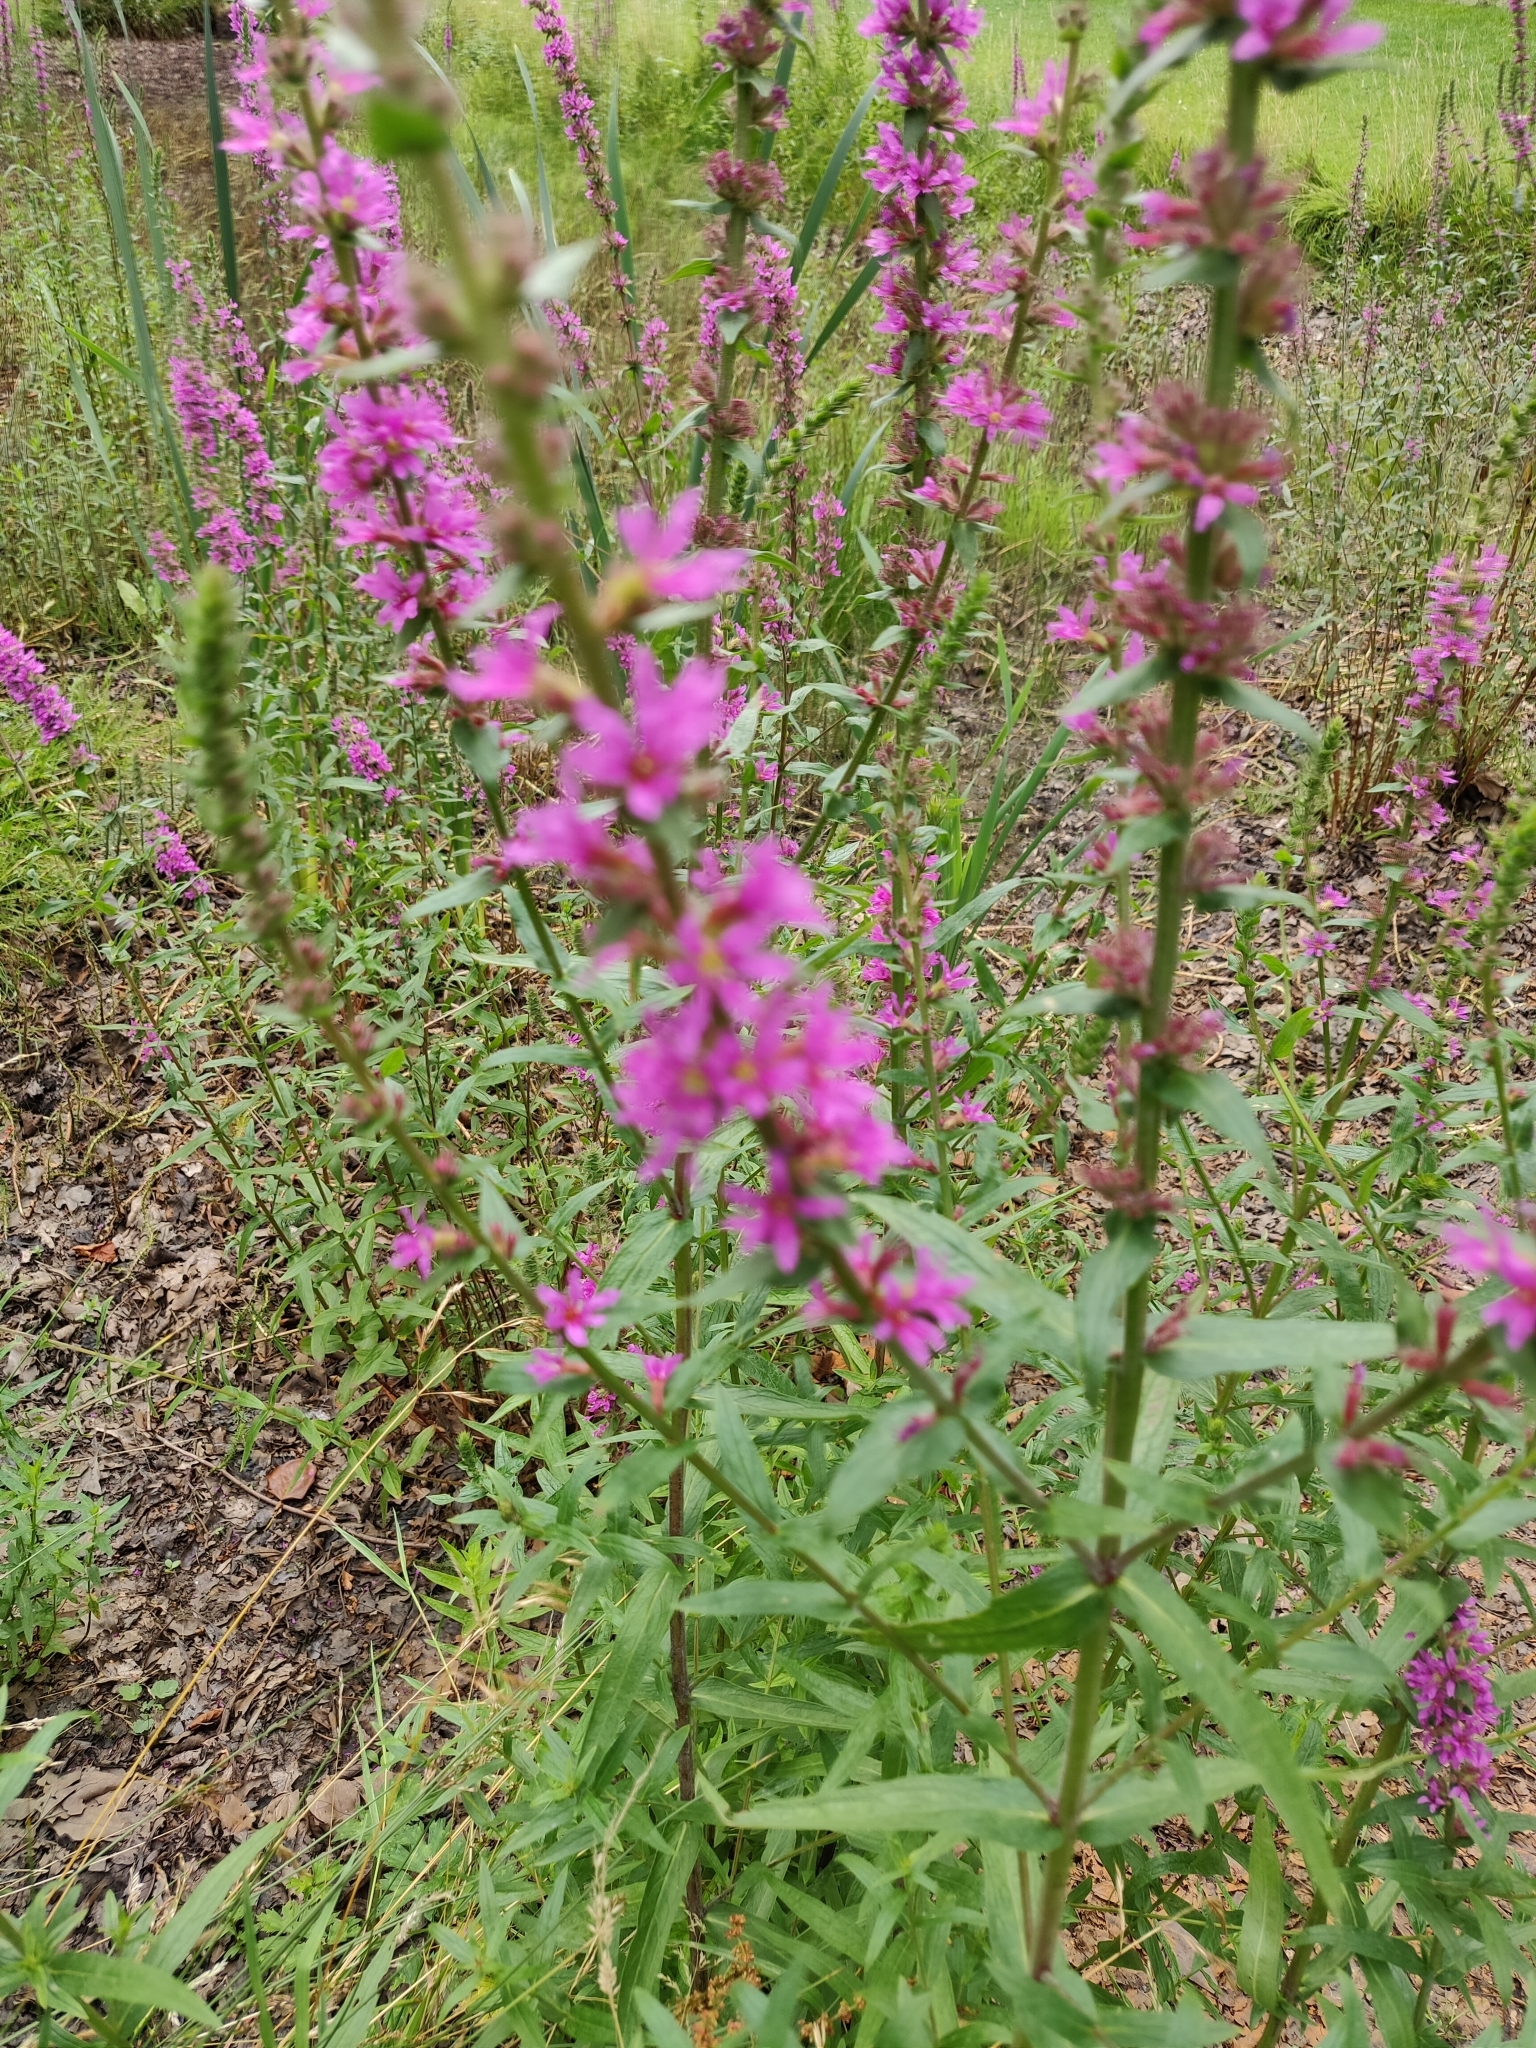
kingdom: Plantae
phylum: Tracheophyta
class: Magnoliopsida
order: Myrtales
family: Lythraceae
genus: Lythrum
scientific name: Lythrum salicaria
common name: Purple loosestrife
